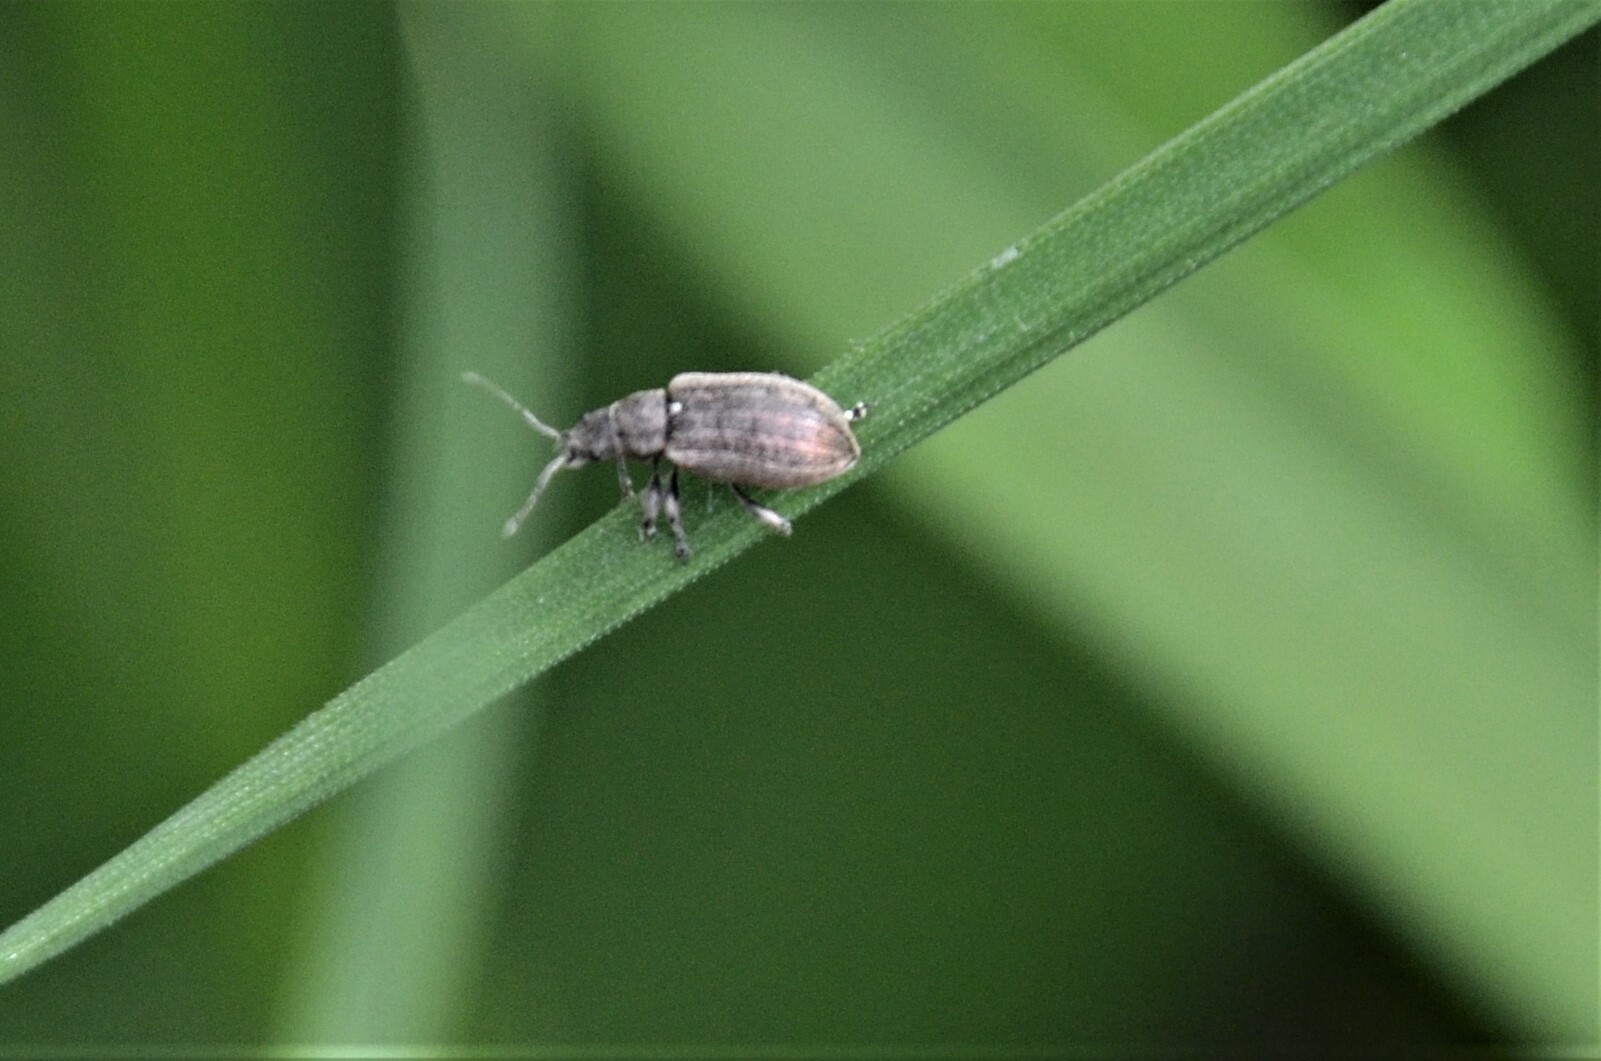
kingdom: Animalia
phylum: Arthropoda
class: Insecta
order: Coleoptera
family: Curculionidae
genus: Phyllobius
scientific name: Phyllobius pyri
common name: Common leaf weevil
